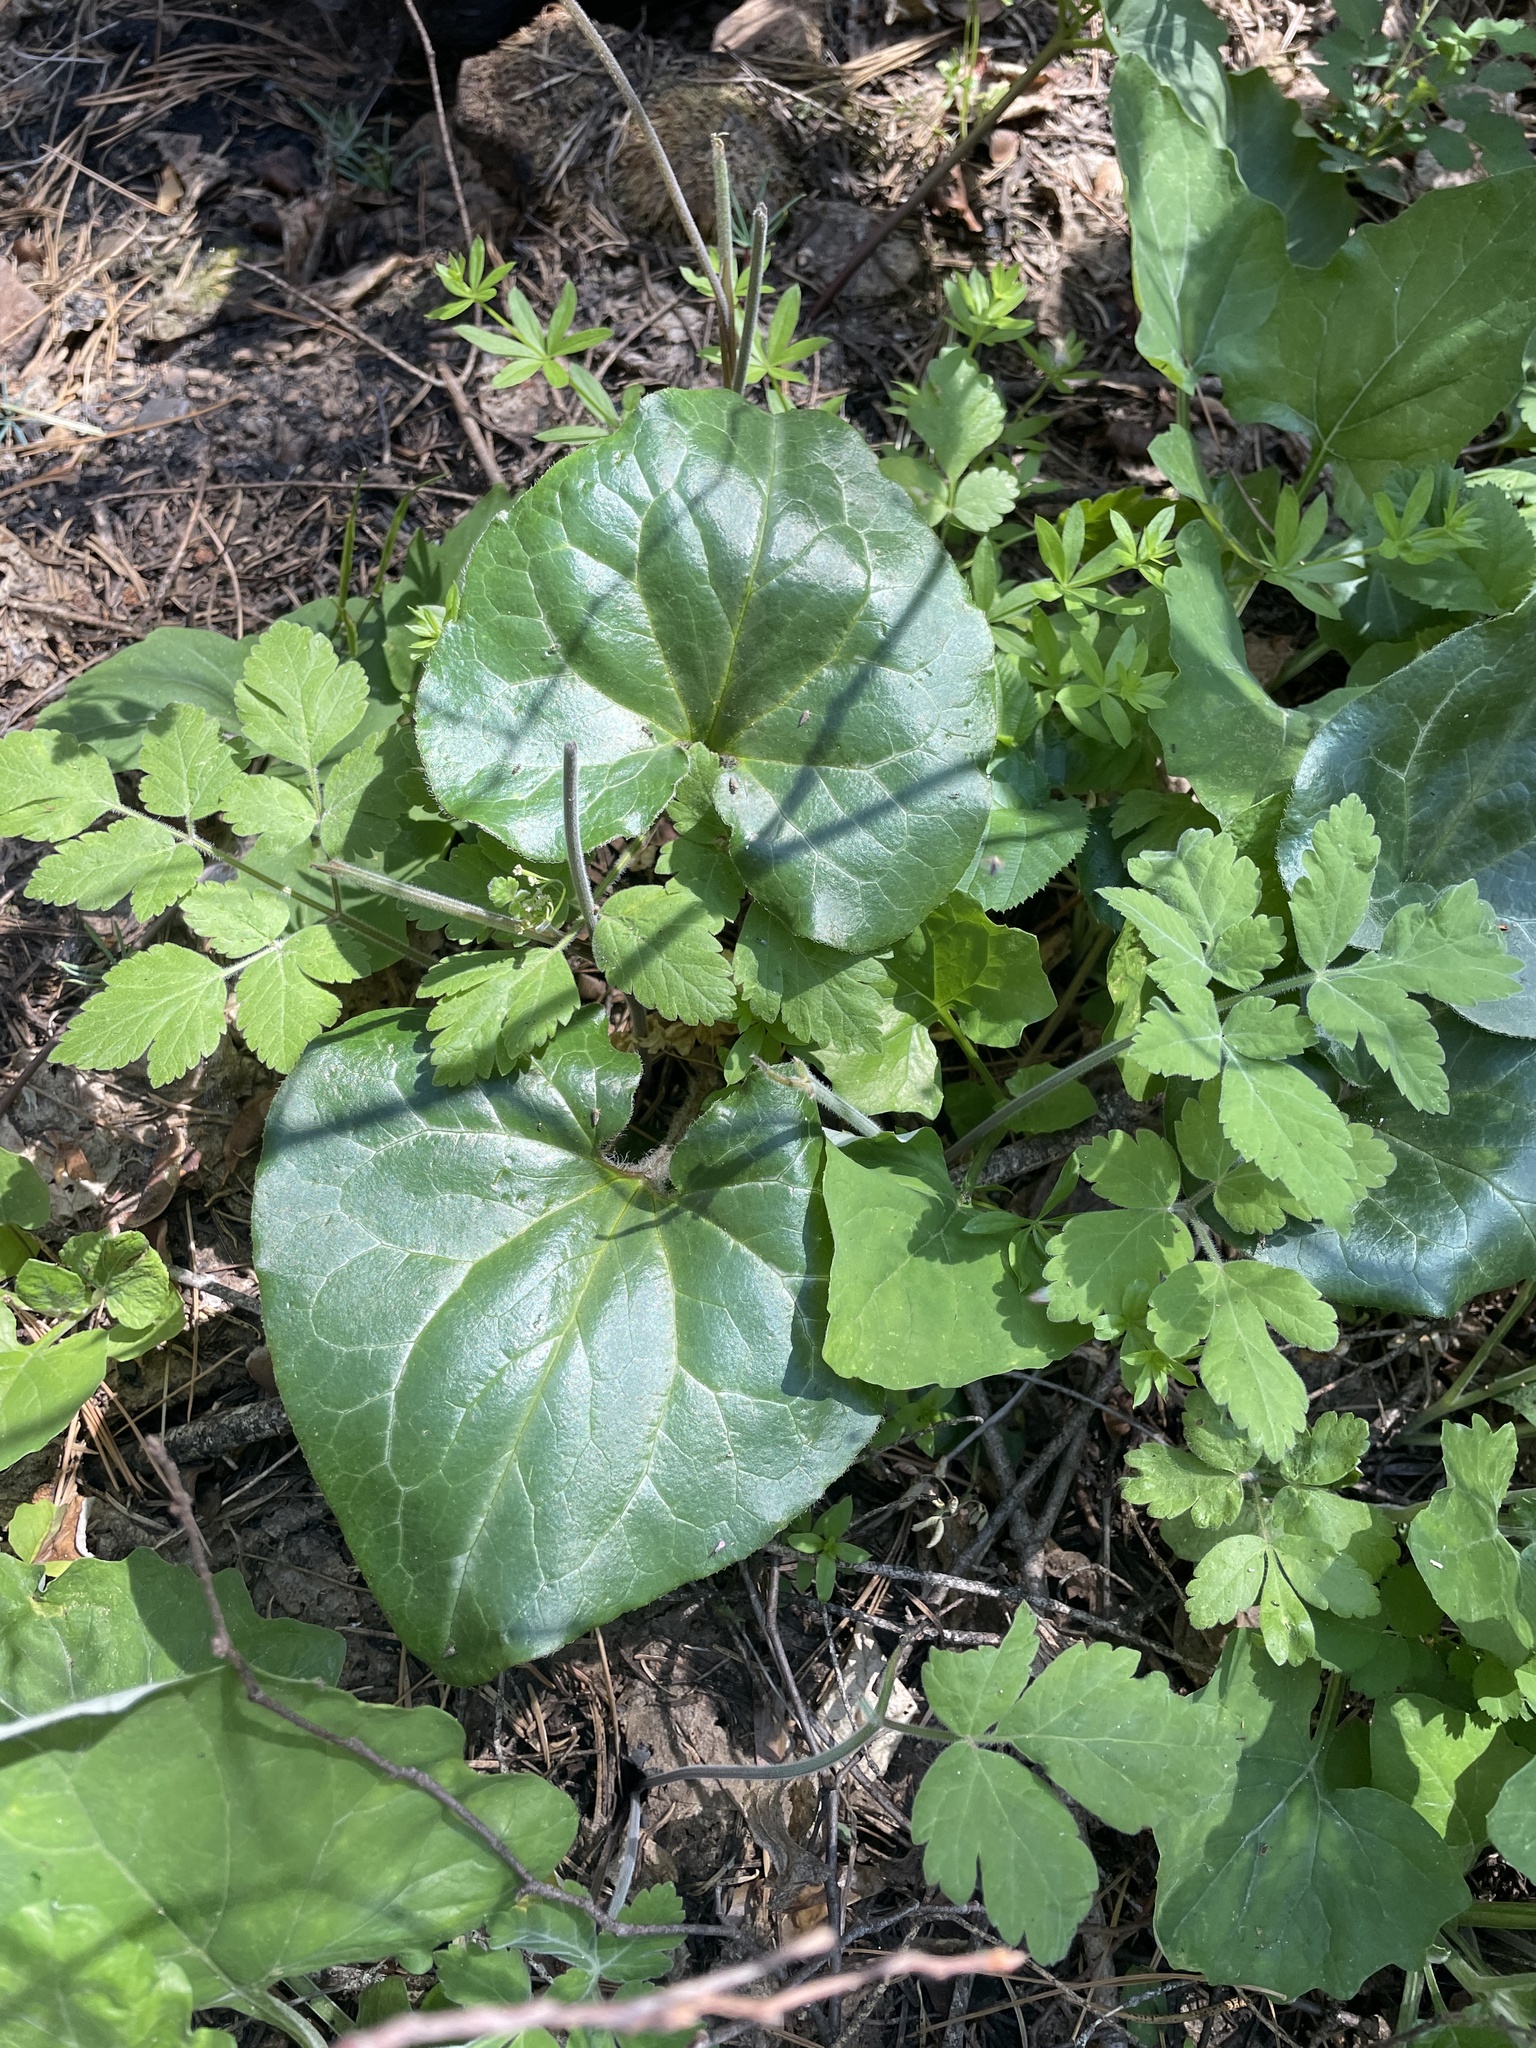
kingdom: Plantae
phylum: Tracheophyta
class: Magnoliopsida
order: Piperales
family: Aristolochiaceae
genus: Asarum
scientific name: Asarum hartwegii
